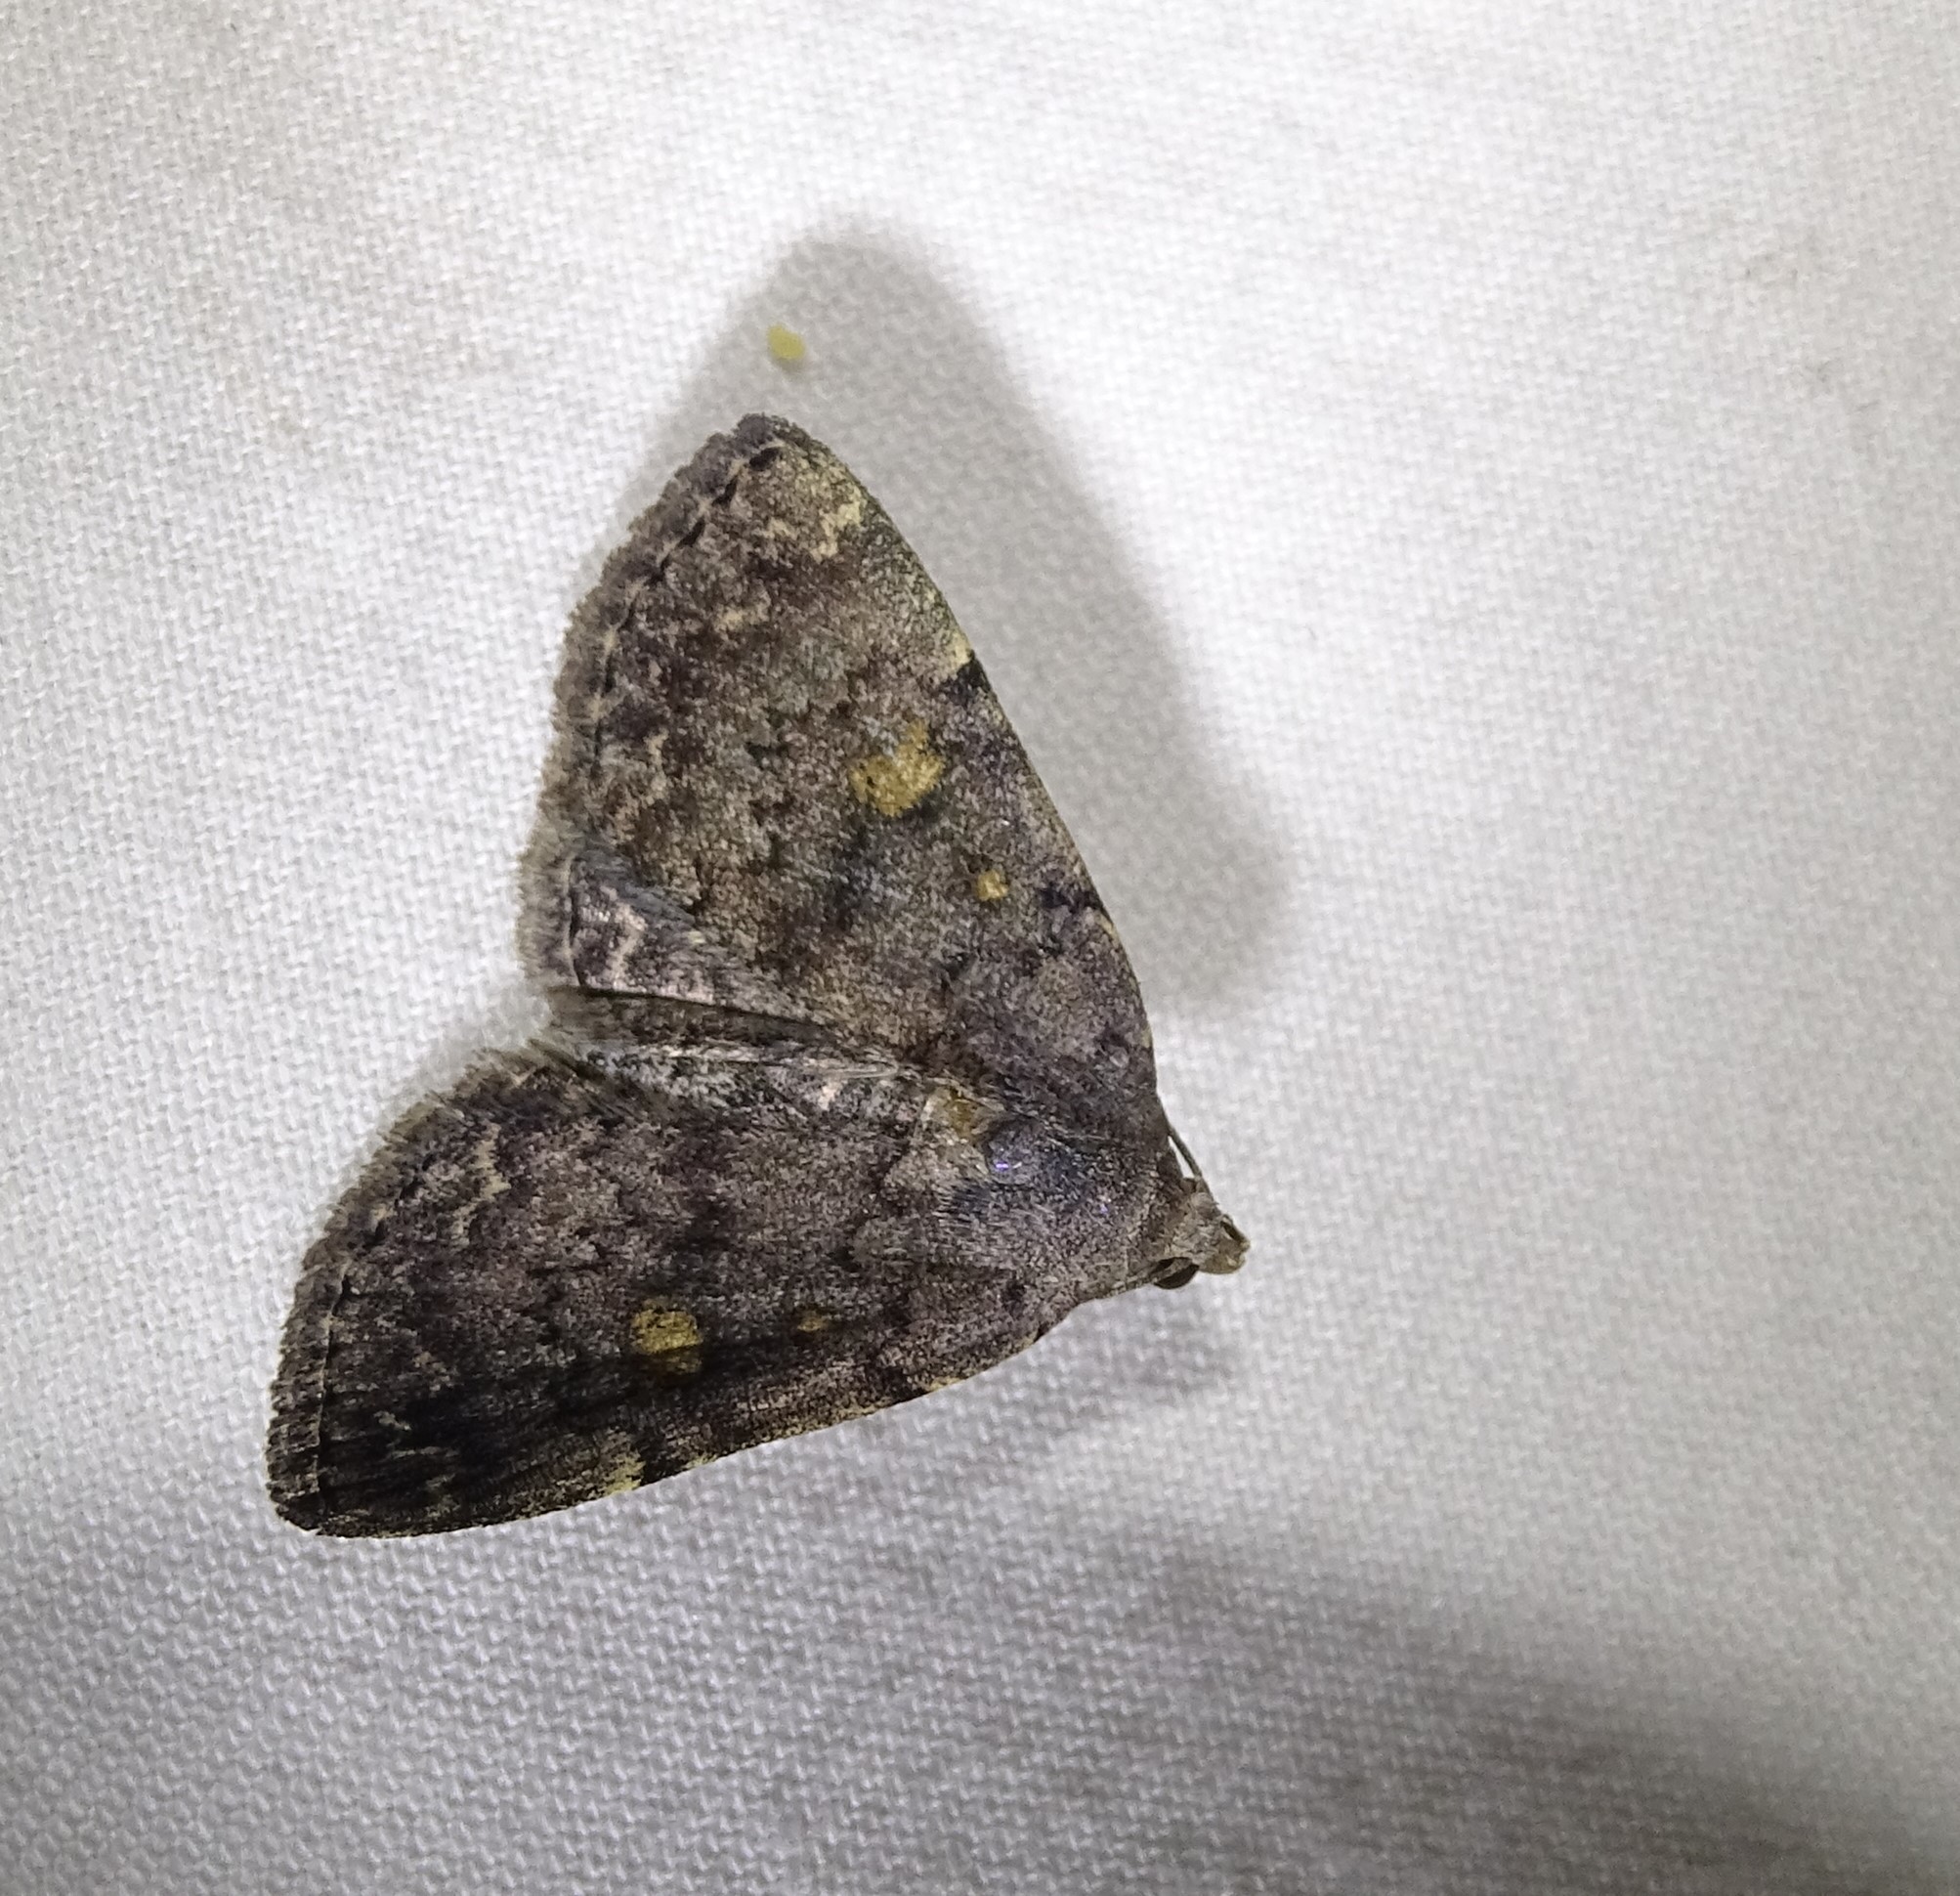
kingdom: Animalia
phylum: Arthropoda
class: Insecta
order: Lepidoptera
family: Erebidae
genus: Idia
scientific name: Idia aemula
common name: Common idia moth
